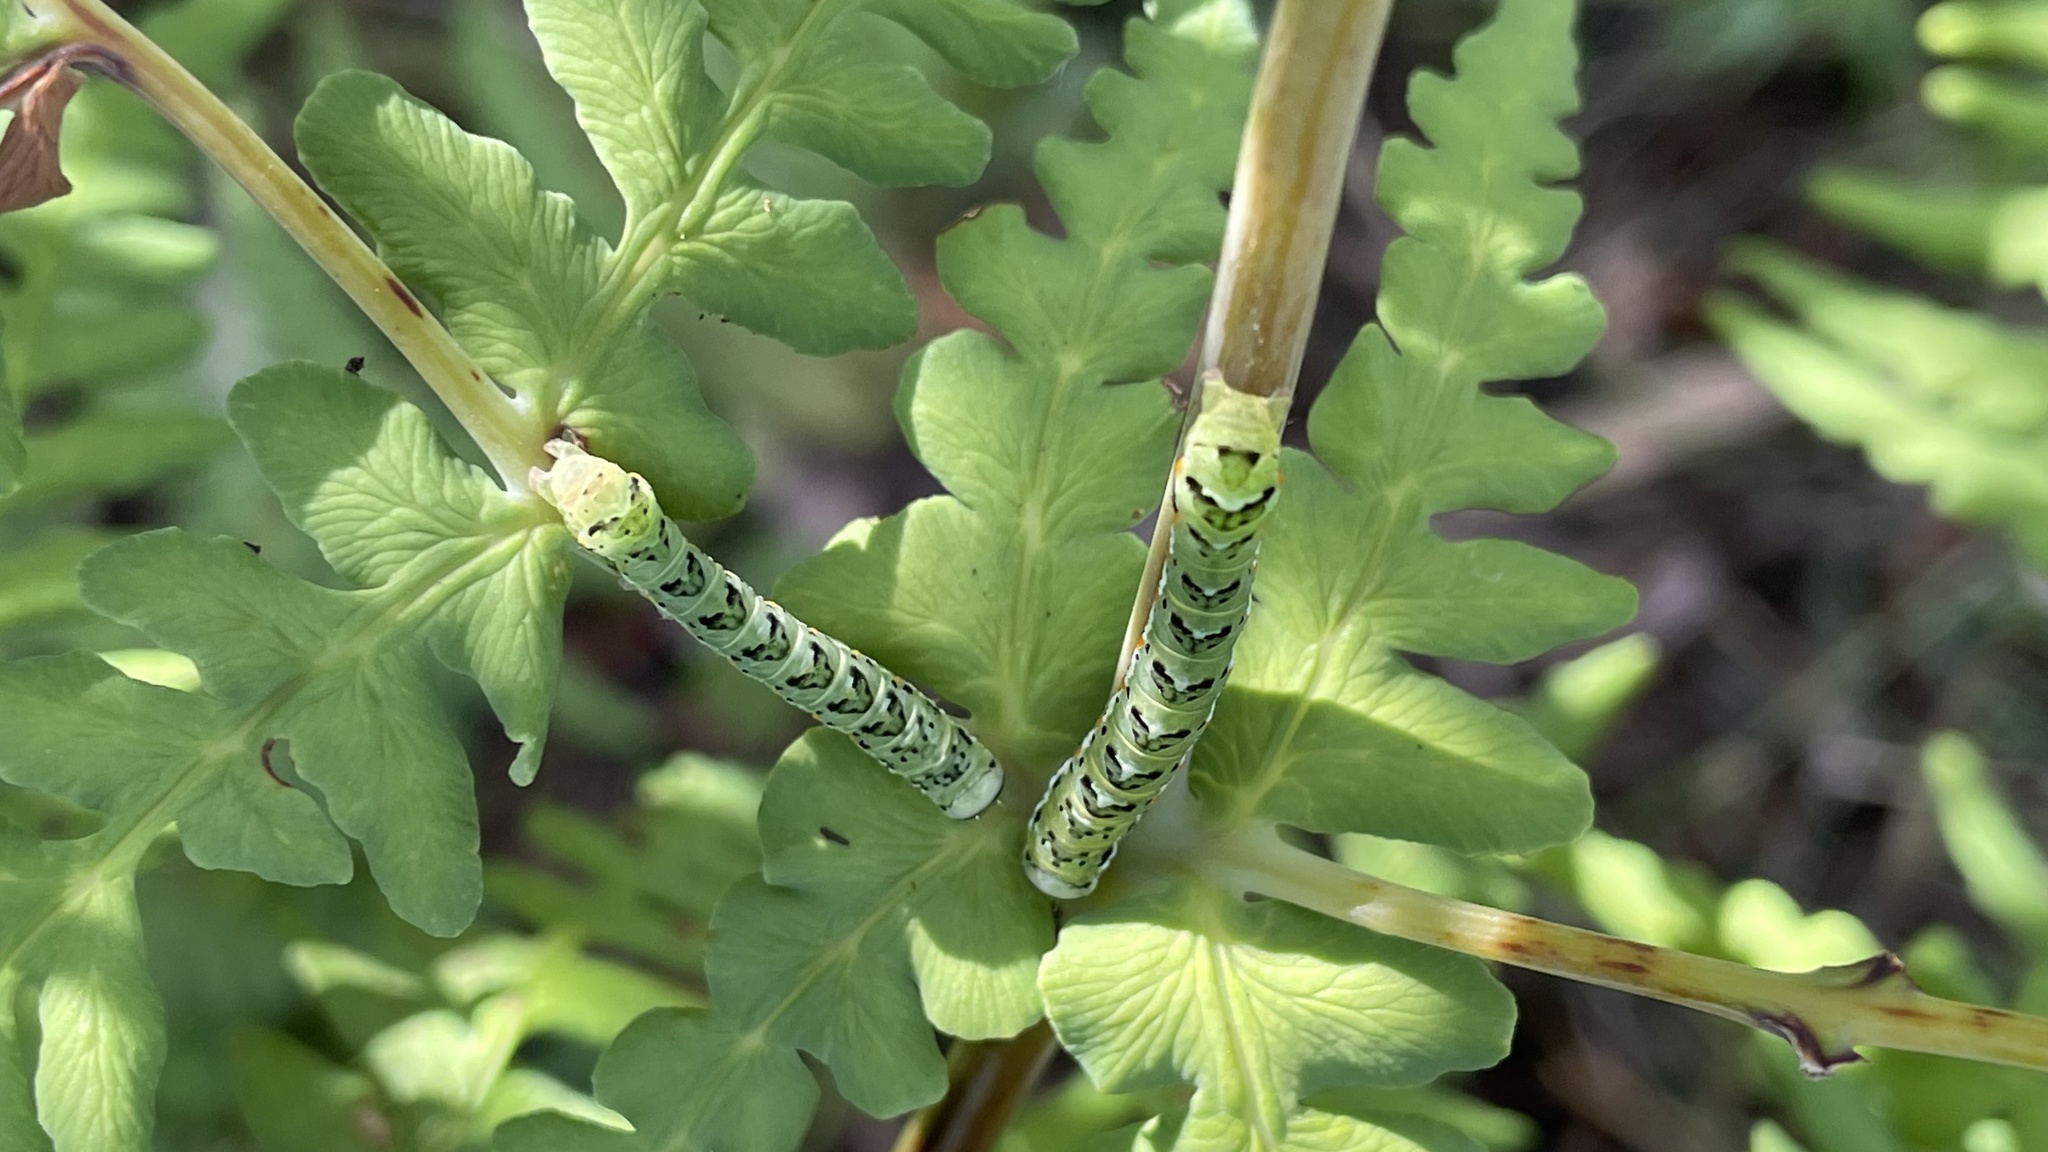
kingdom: Animalia
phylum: Arthropoda
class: Insecta
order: Lepidoptera
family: Noctuidae
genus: Callopistria
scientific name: Callopistria maillardi
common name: Cutworm
